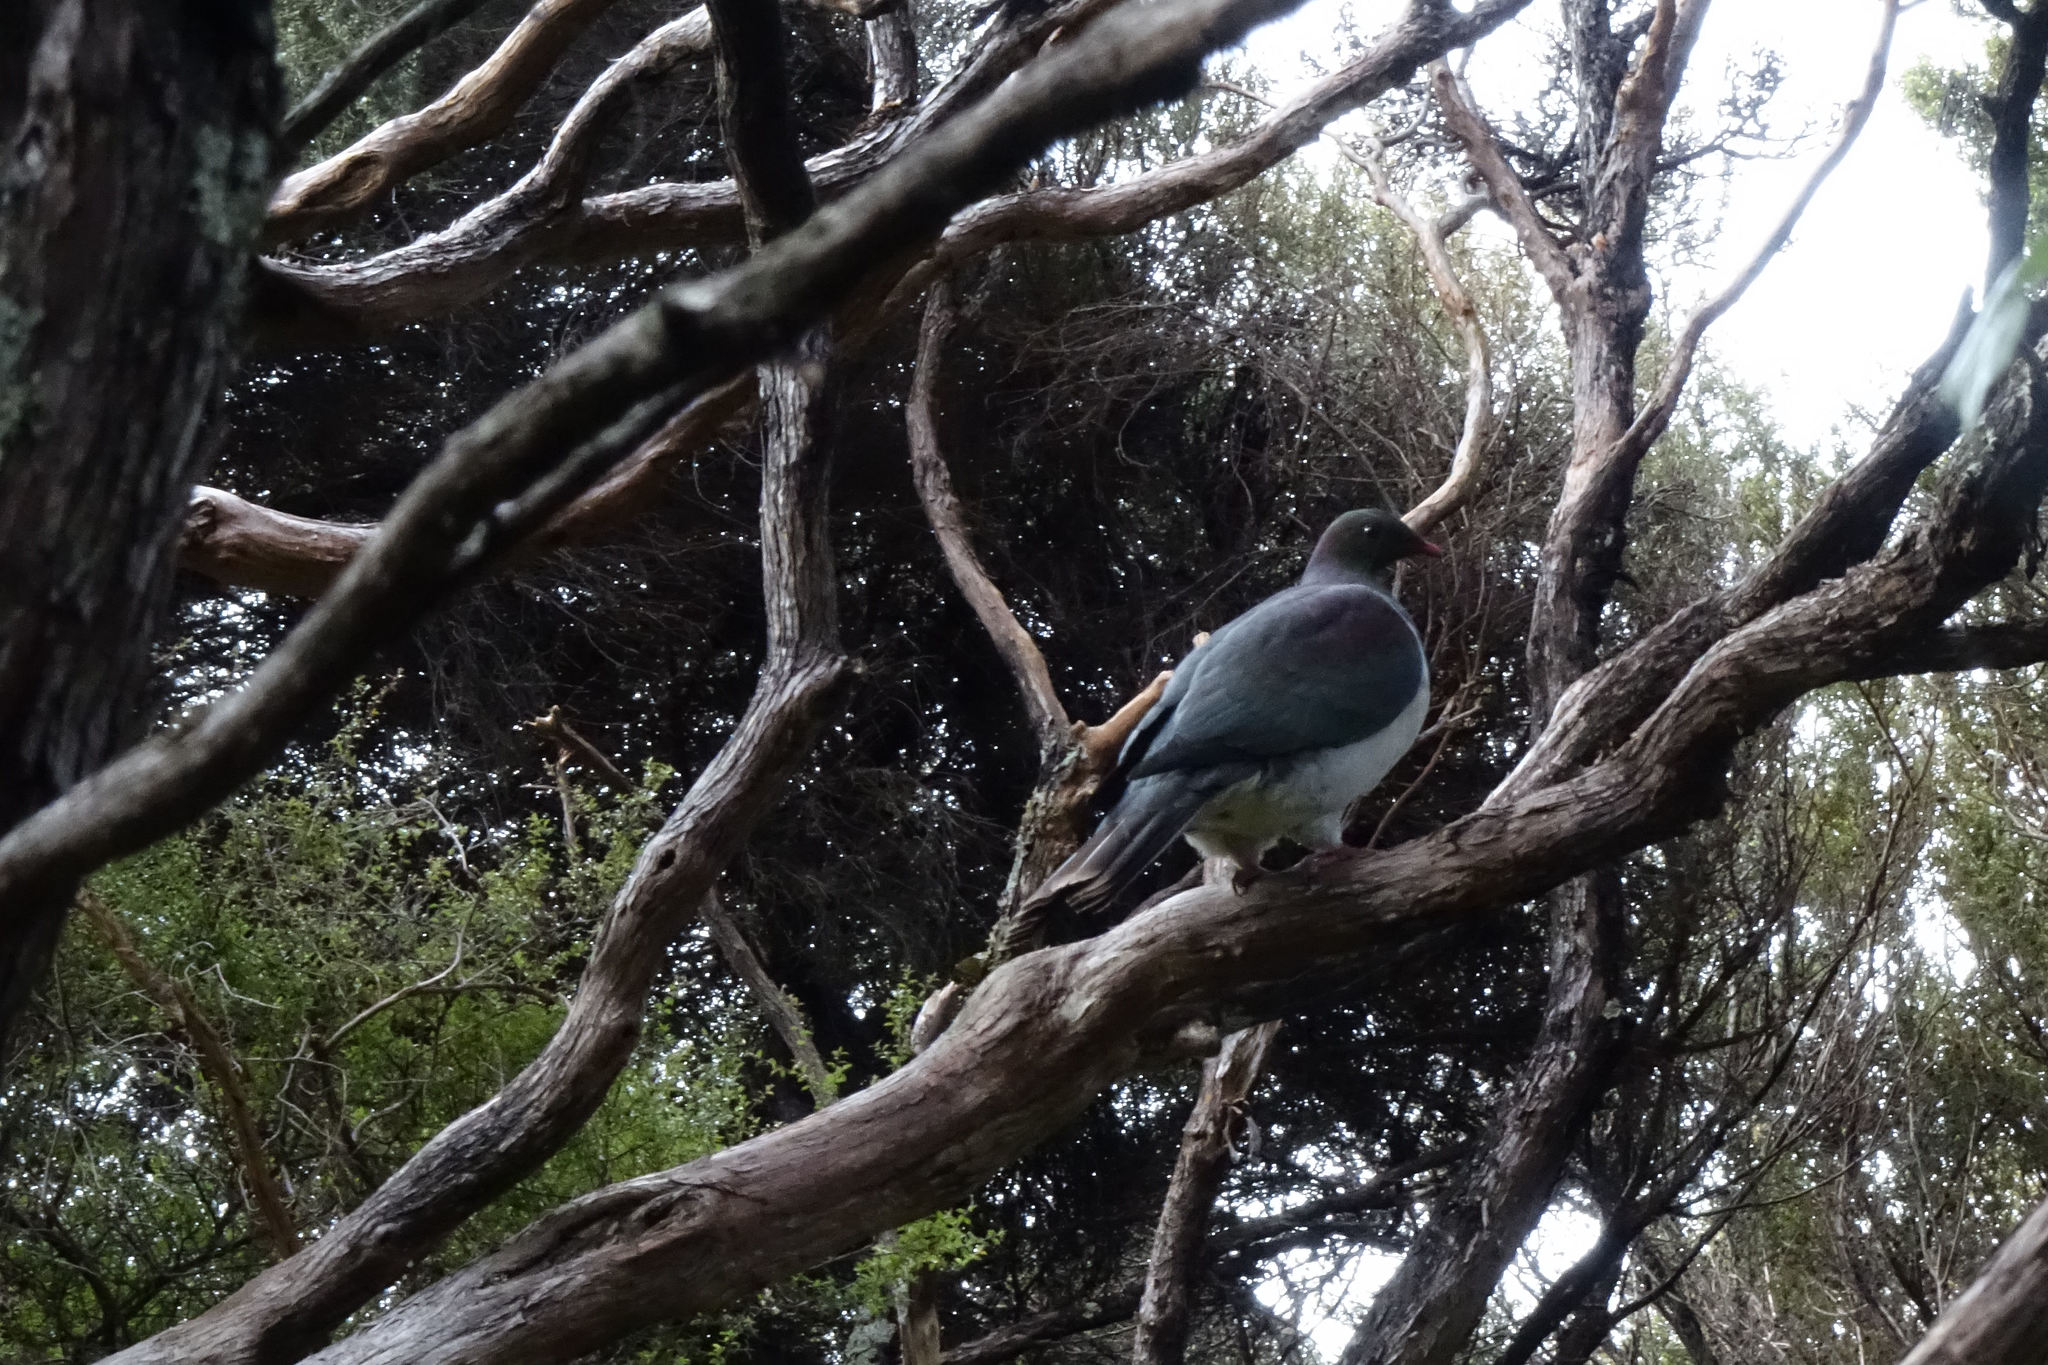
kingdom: Animalia
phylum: Chordata
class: Aves
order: Columbiformes
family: Columbidae
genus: Hemiphaga
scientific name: Hemiphaga novaeseelandiae
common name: New zealand pigeon
